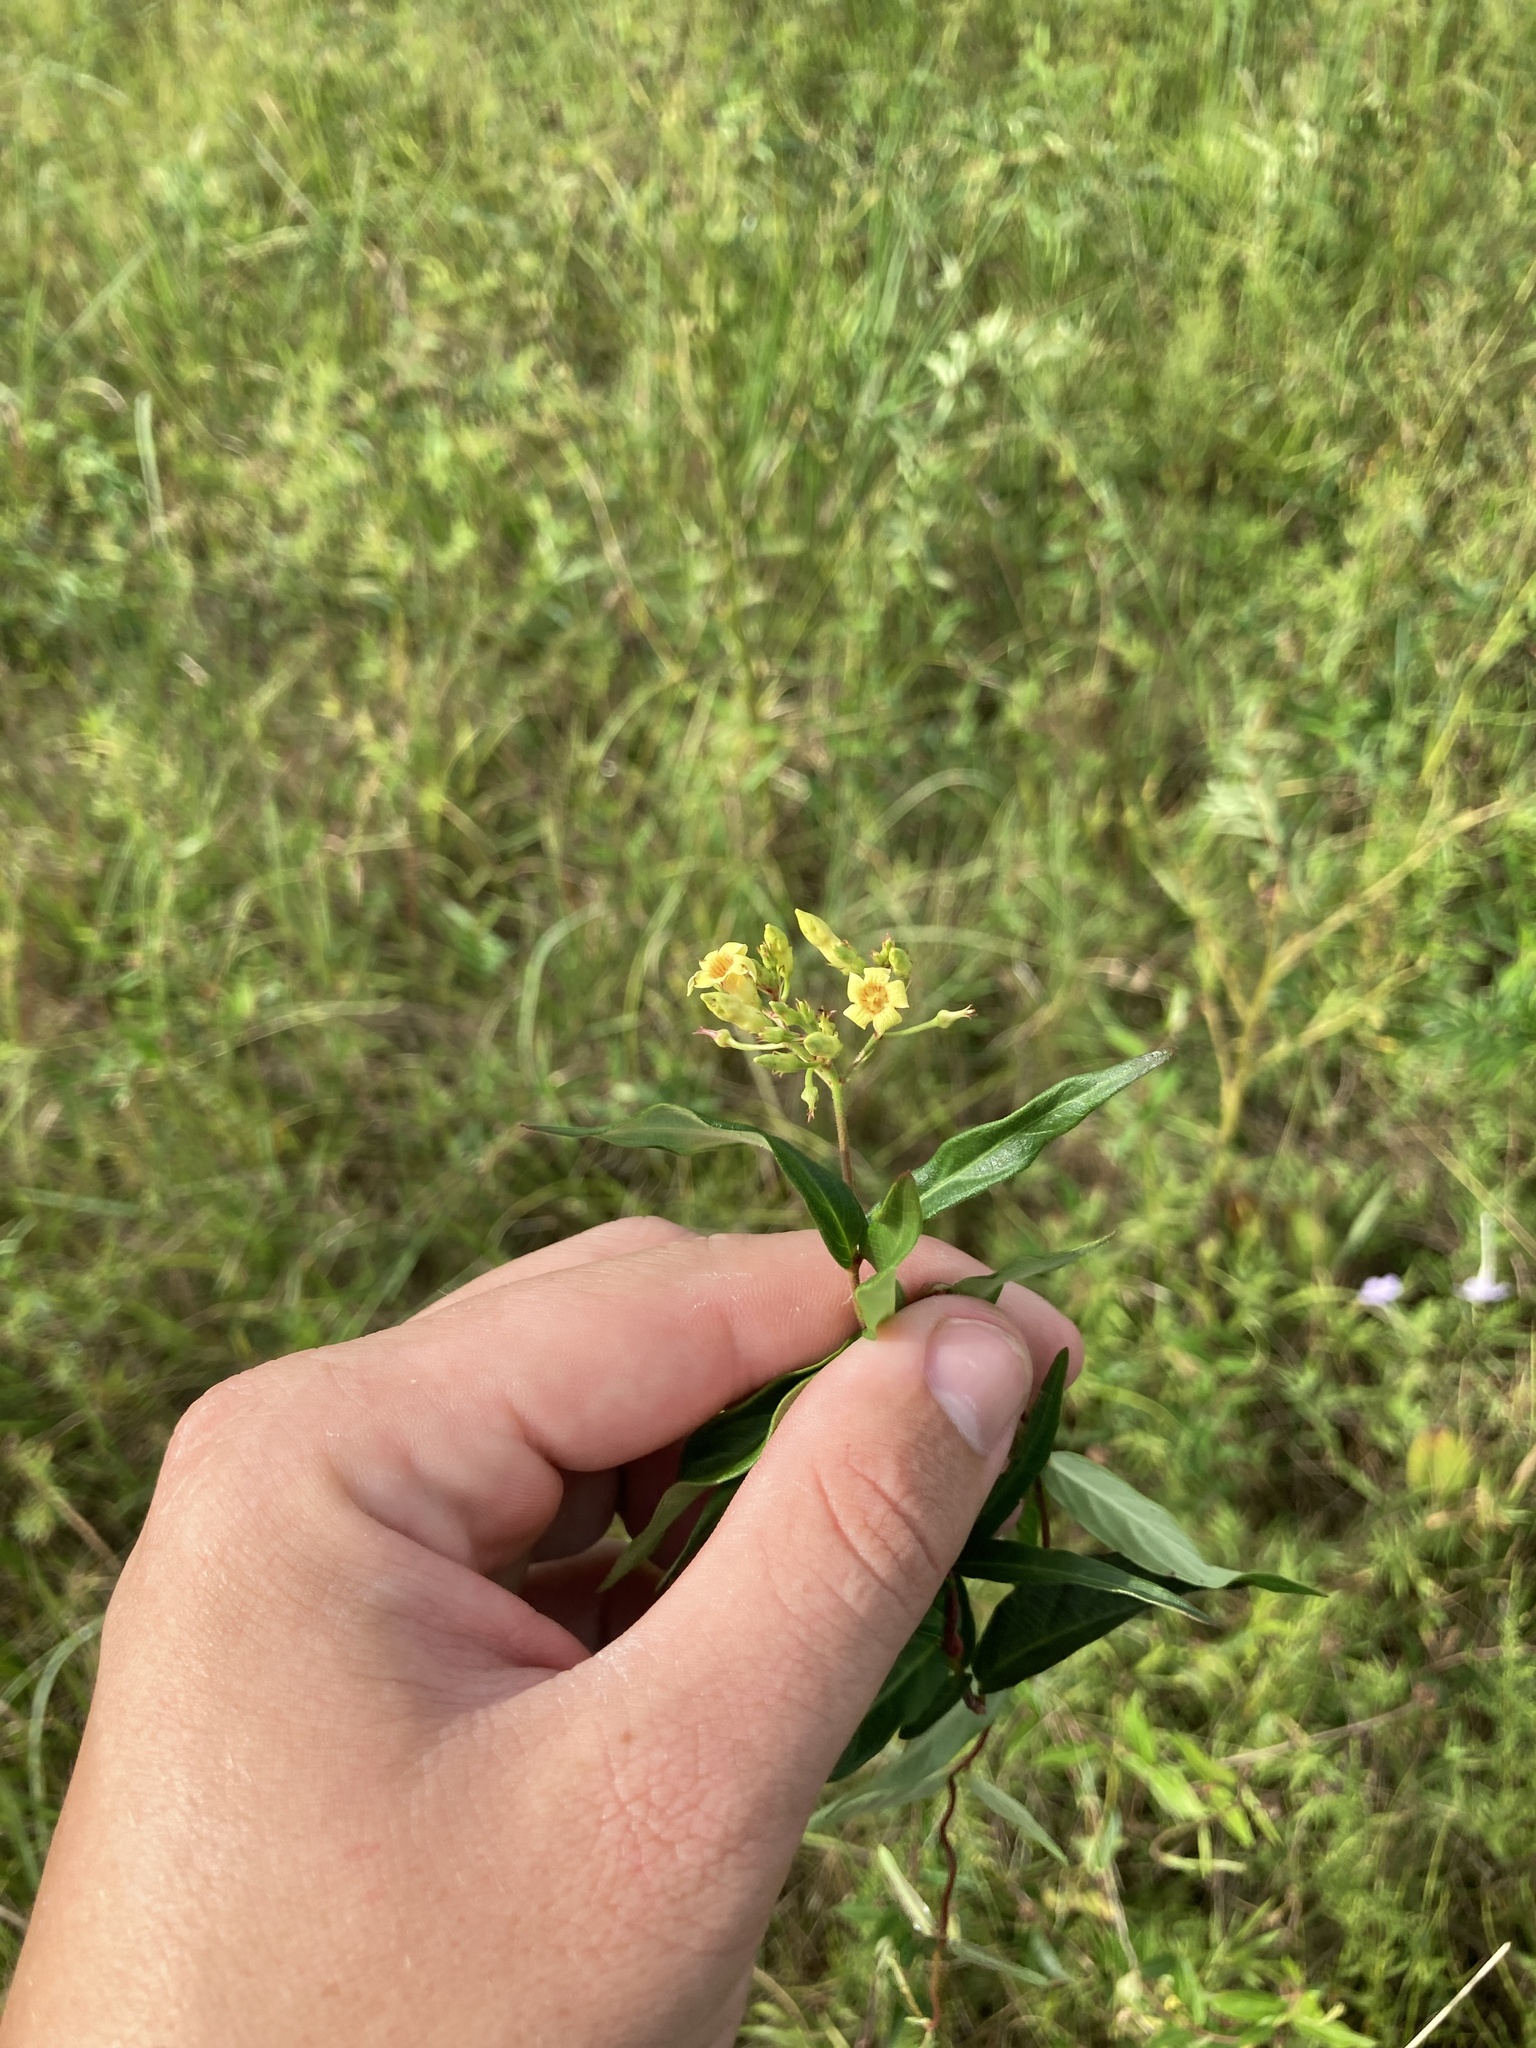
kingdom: Plantae
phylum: Tracheophyta
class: Magnoliopsida
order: Gentianales
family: Apocynaceae
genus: Thyrsanthella
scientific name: Thyrsanthella difformis
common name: Climbing dogbane
